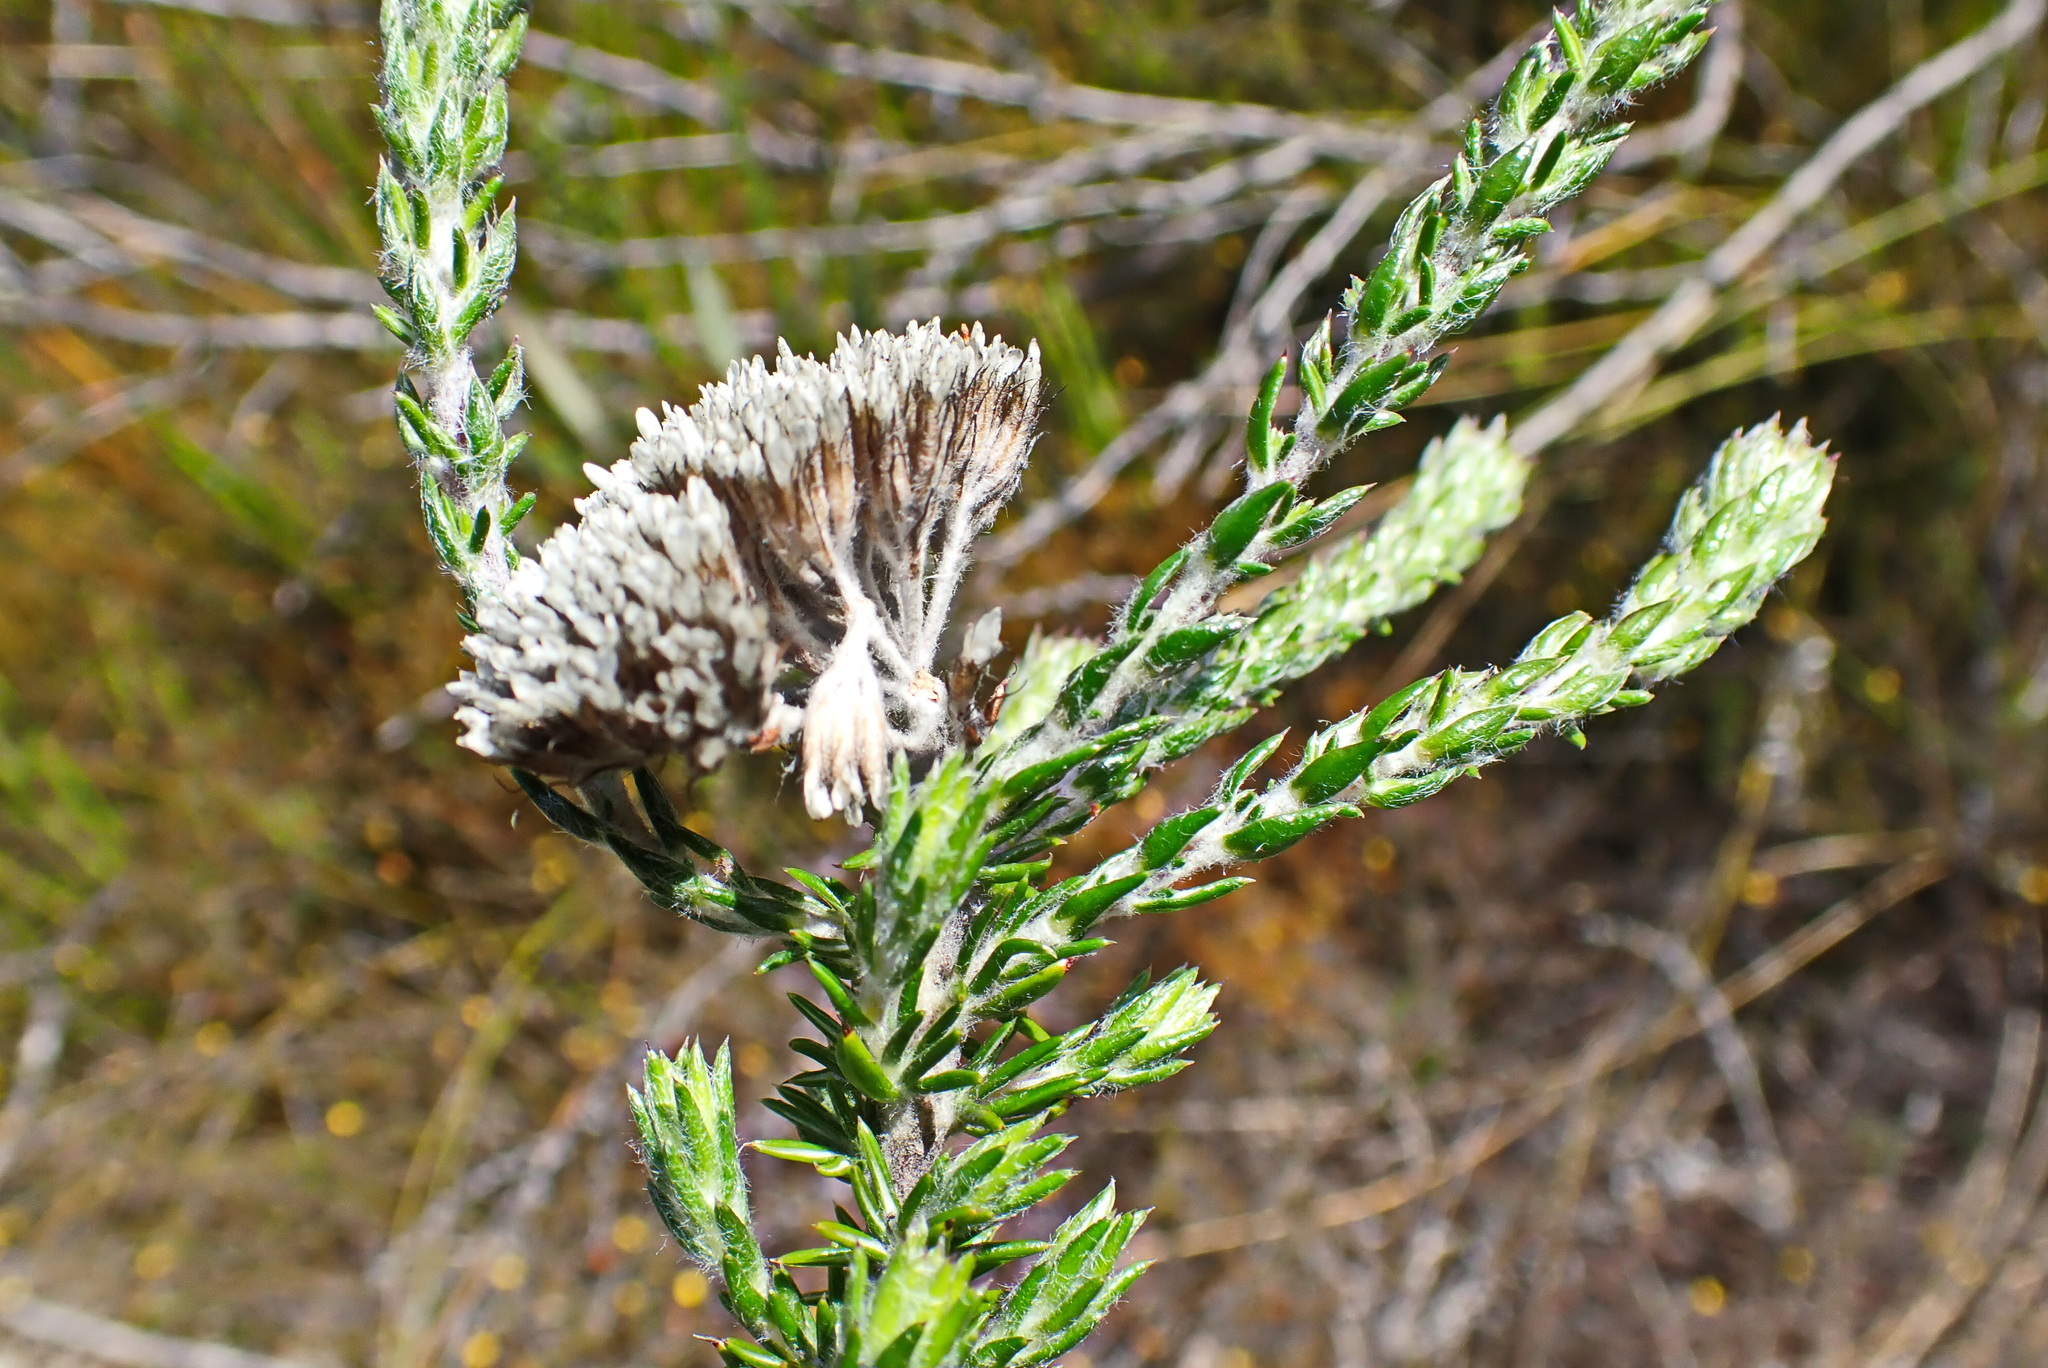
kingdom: Plantae
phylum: Tracheophyta
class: Magnoliopsida
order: Asterales
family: Asteraceae
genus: Metalasia
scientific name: Metalasia pungens
